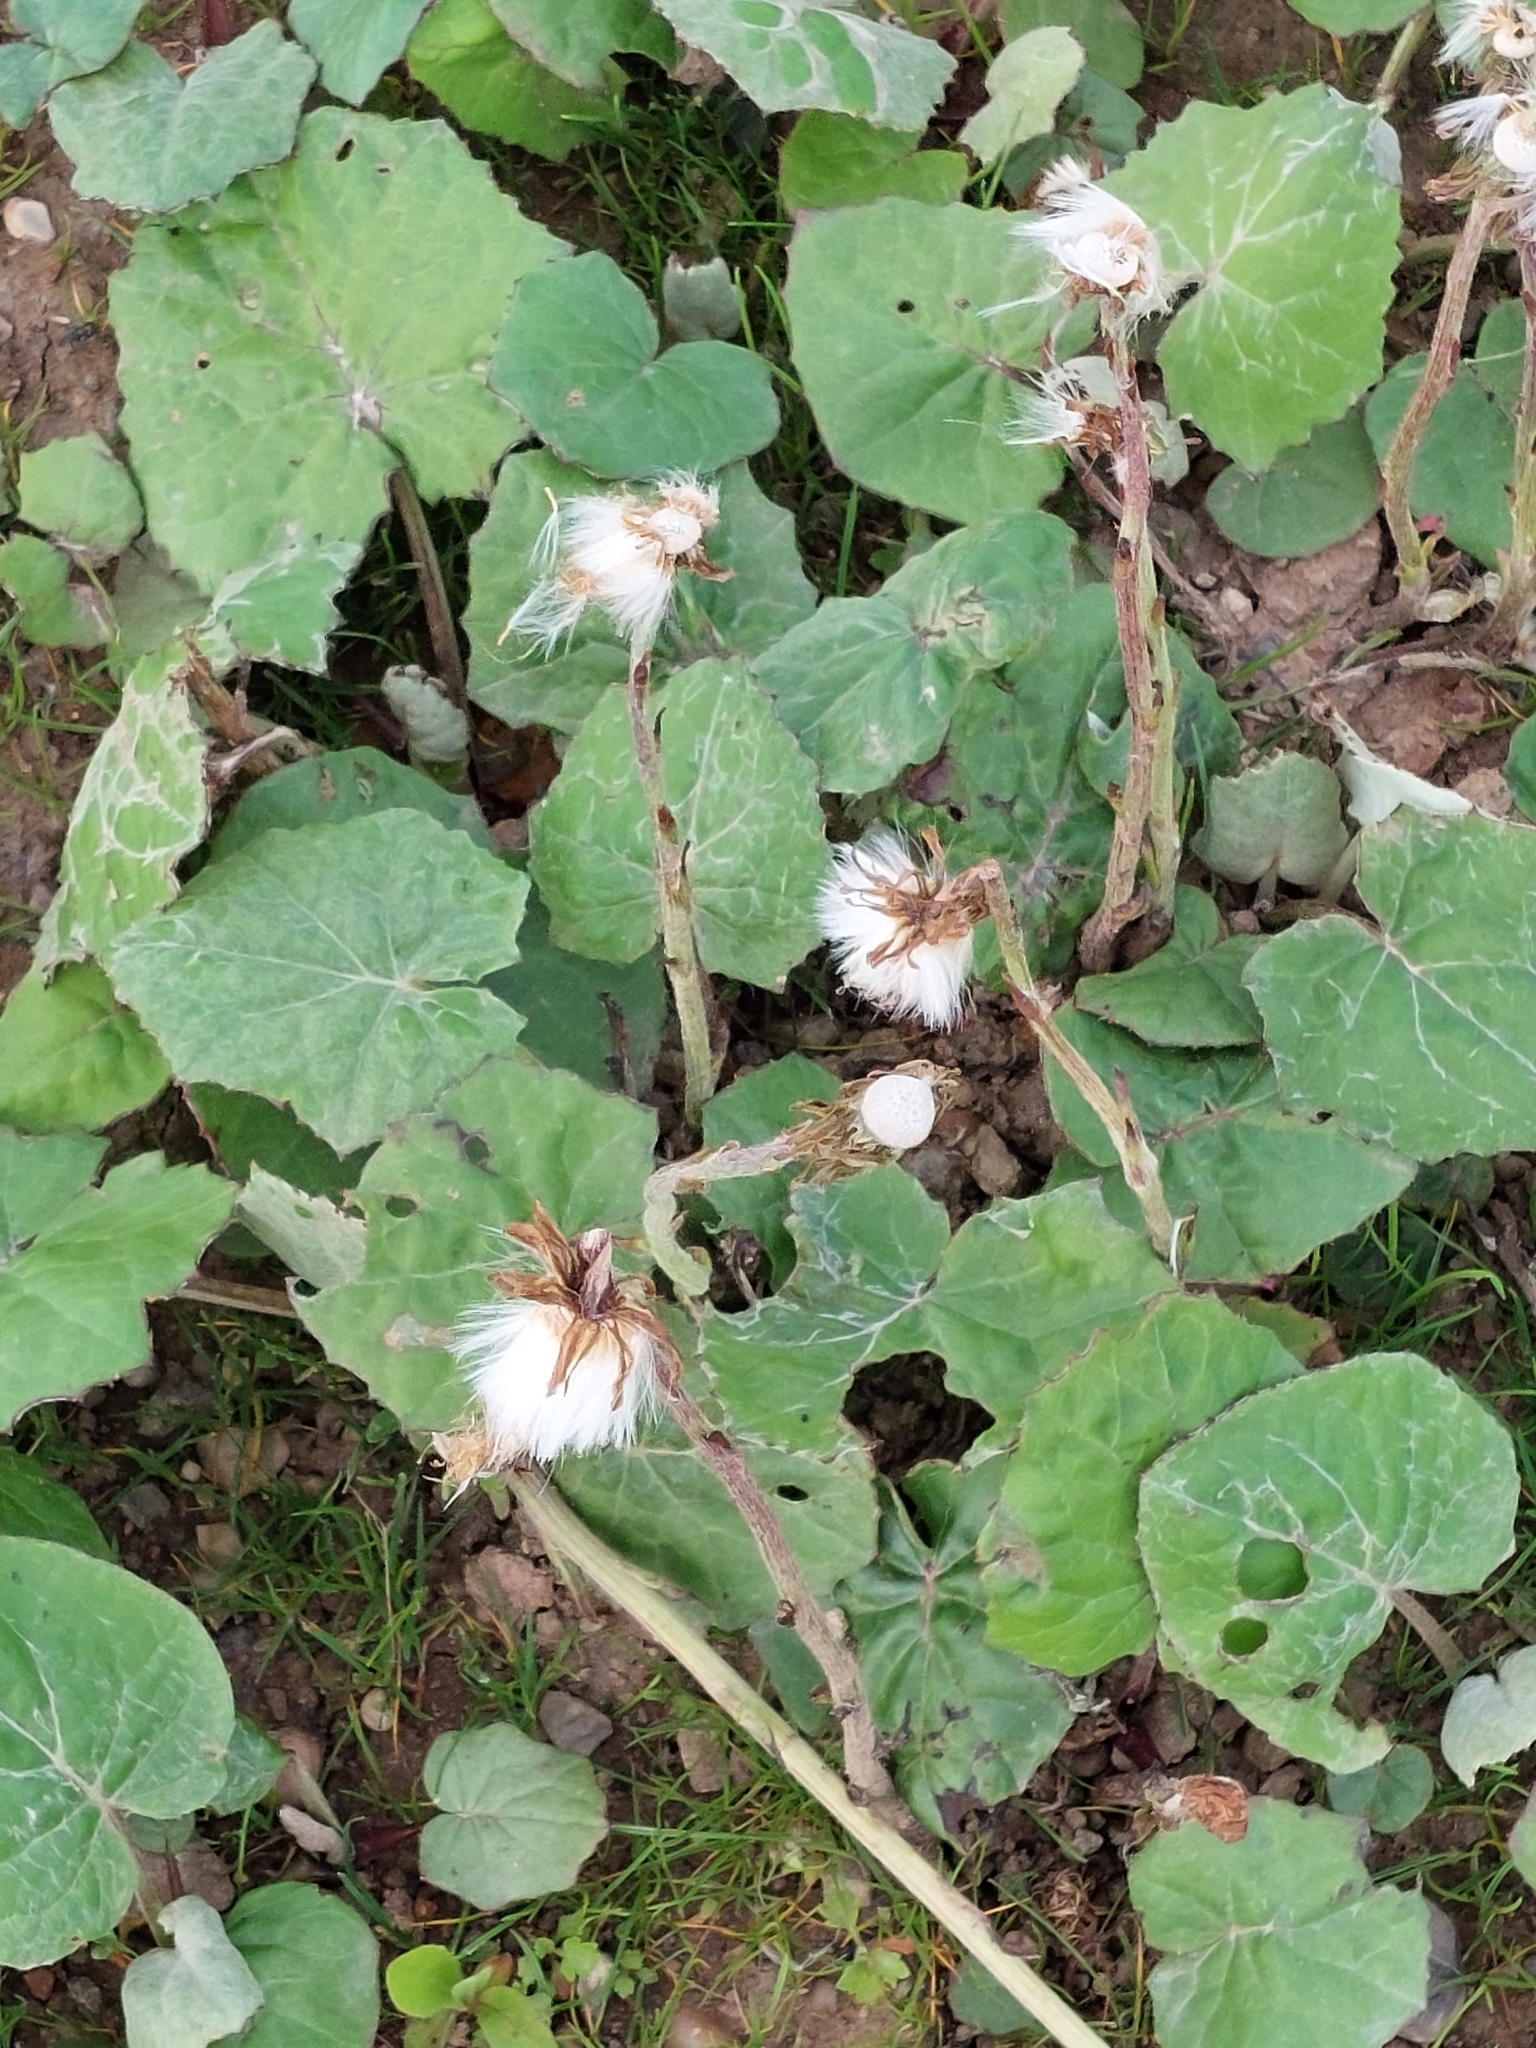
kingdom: Plantae
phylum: Tracheophyta
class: Magnoliopsida
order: Asterales
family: Asteraceae
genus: Tussilago
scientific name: Tussilago farfara
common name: Coltsfoot
